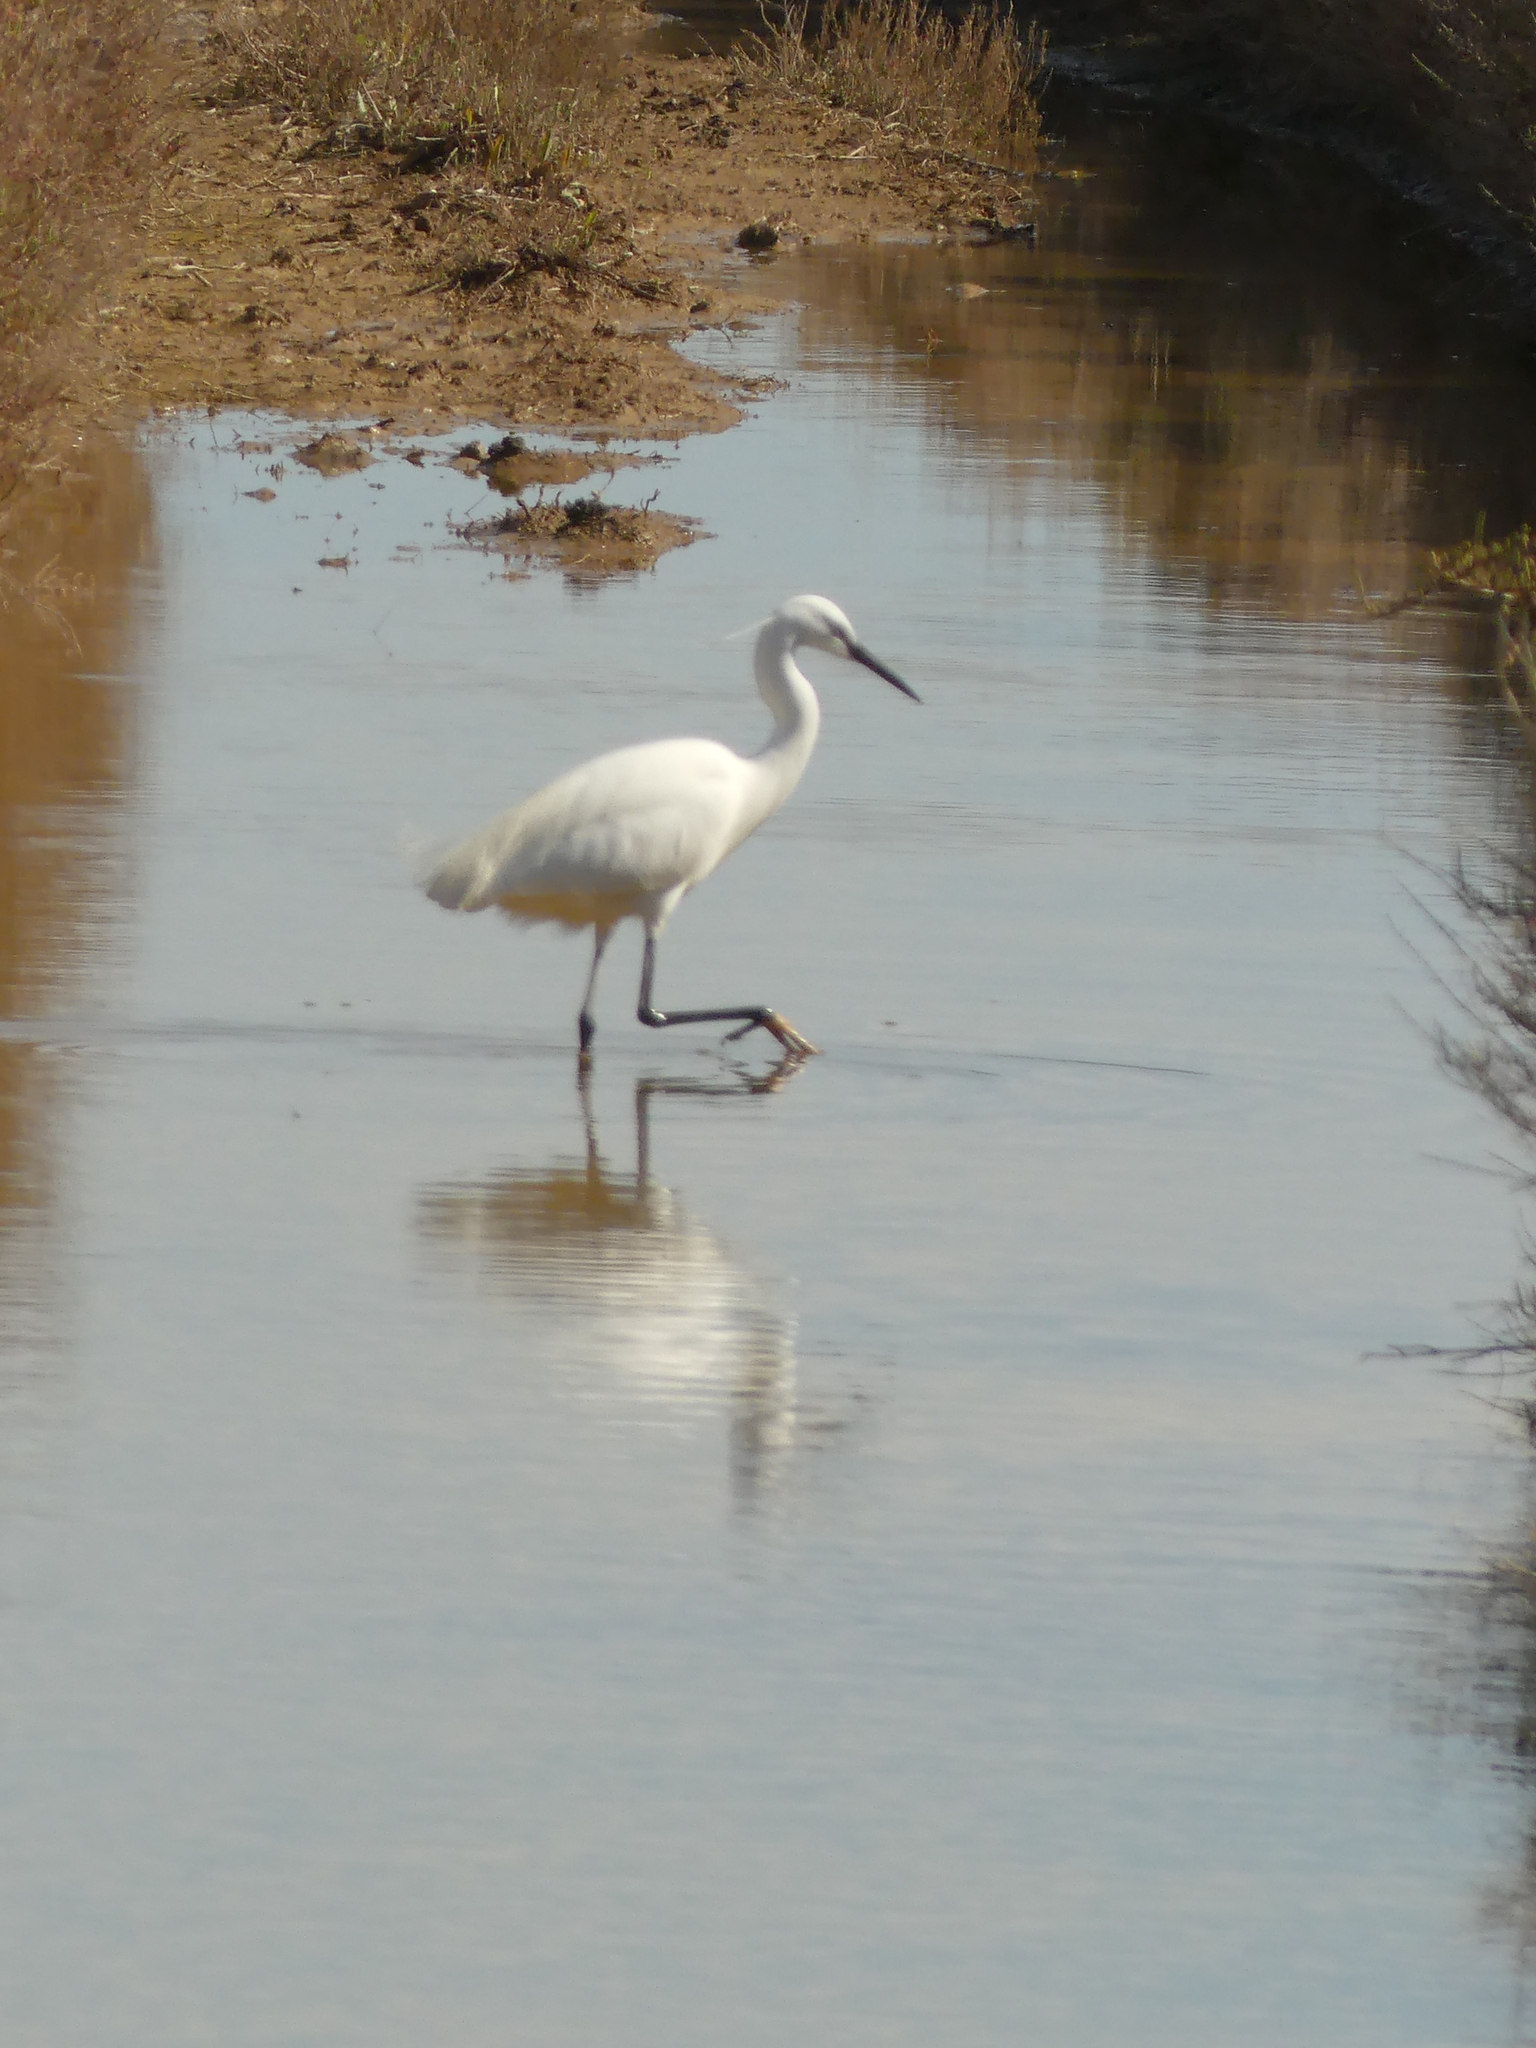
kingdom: Animalia
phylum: Chordata
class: Aves
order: Pelecaniformes
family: Ardeidae
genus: Egretta
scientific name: Egretta garzetta
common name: Little egret
